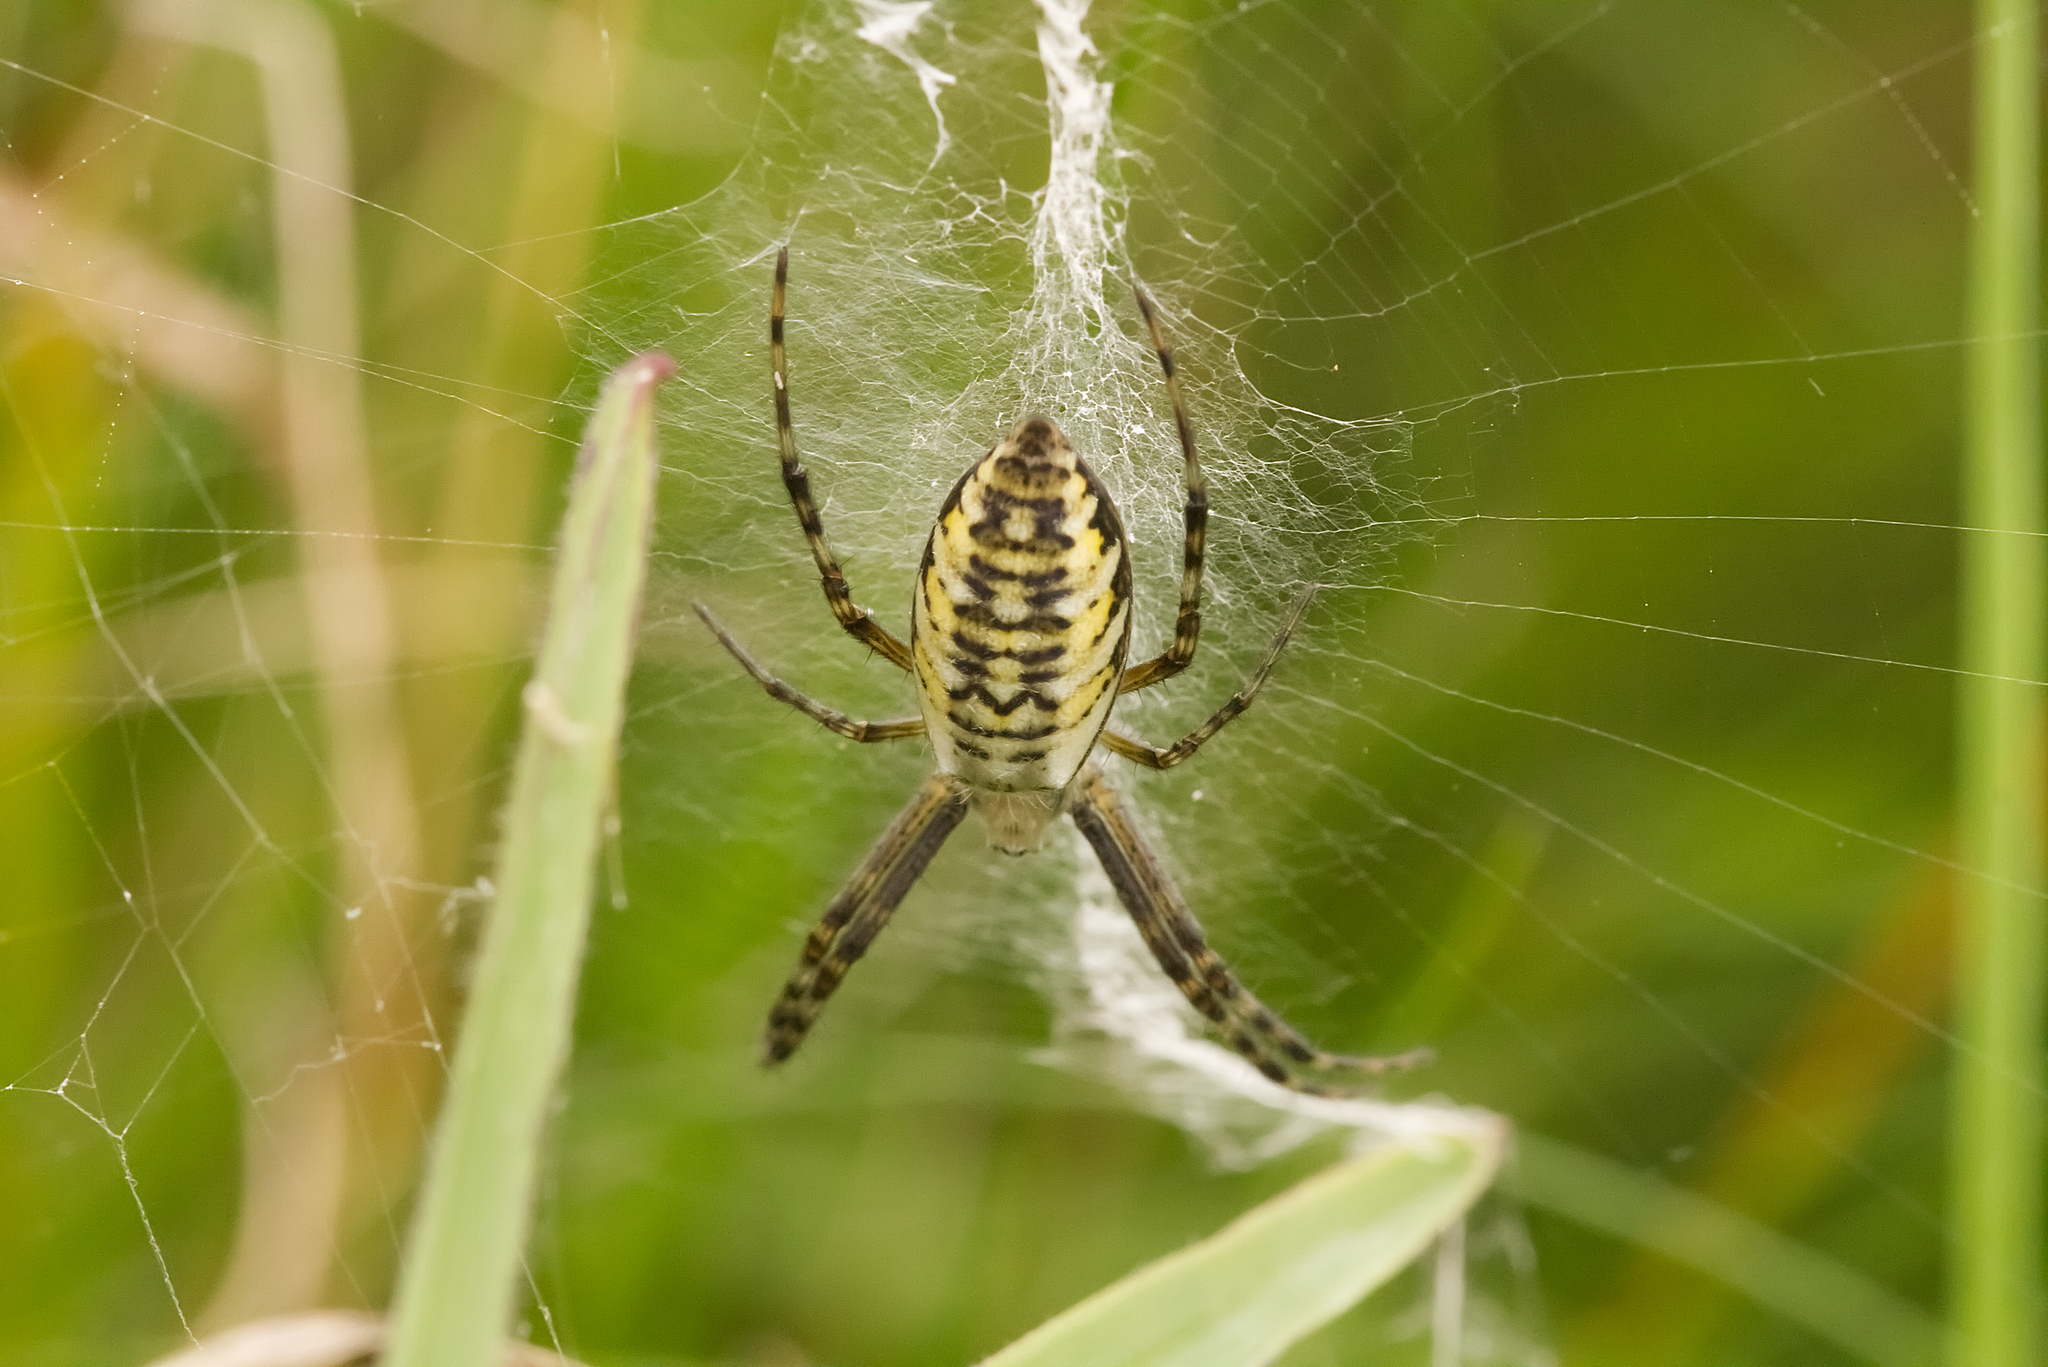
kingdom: Animalia
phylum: Arthropoda
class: Arachnida
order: Araneae
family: Araneidae
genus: Argiope
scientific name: Argiope bruennichi
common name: Wasp spider
